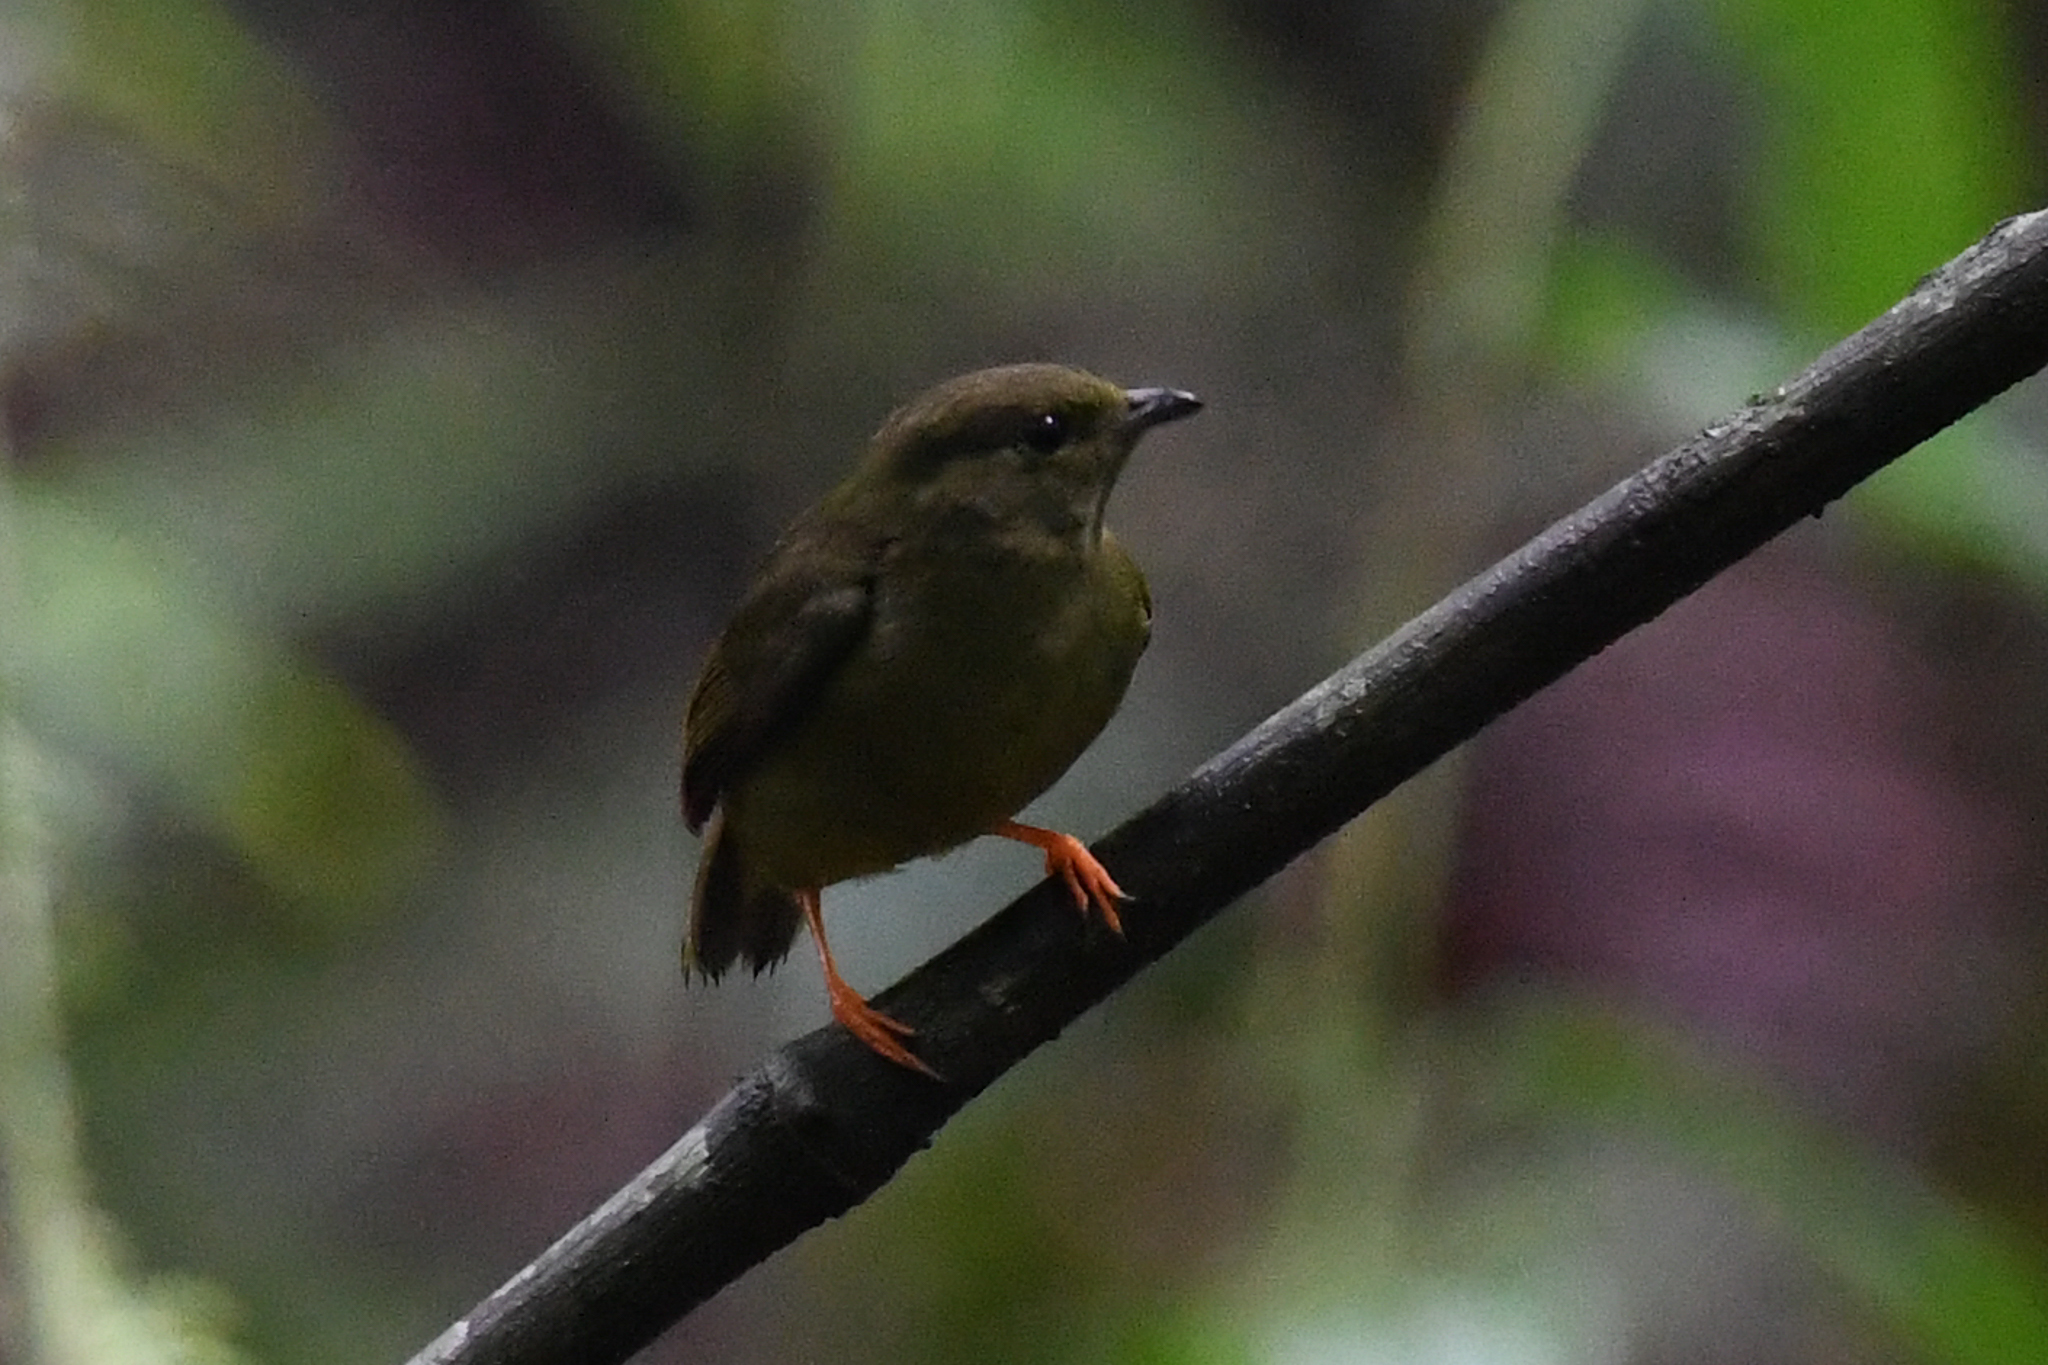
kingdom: Animalia
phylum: Chordata
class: Aves
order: Passeriformes
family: Pipridae
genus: Manacus
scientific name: Manacus candei
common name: White-collared manakin
